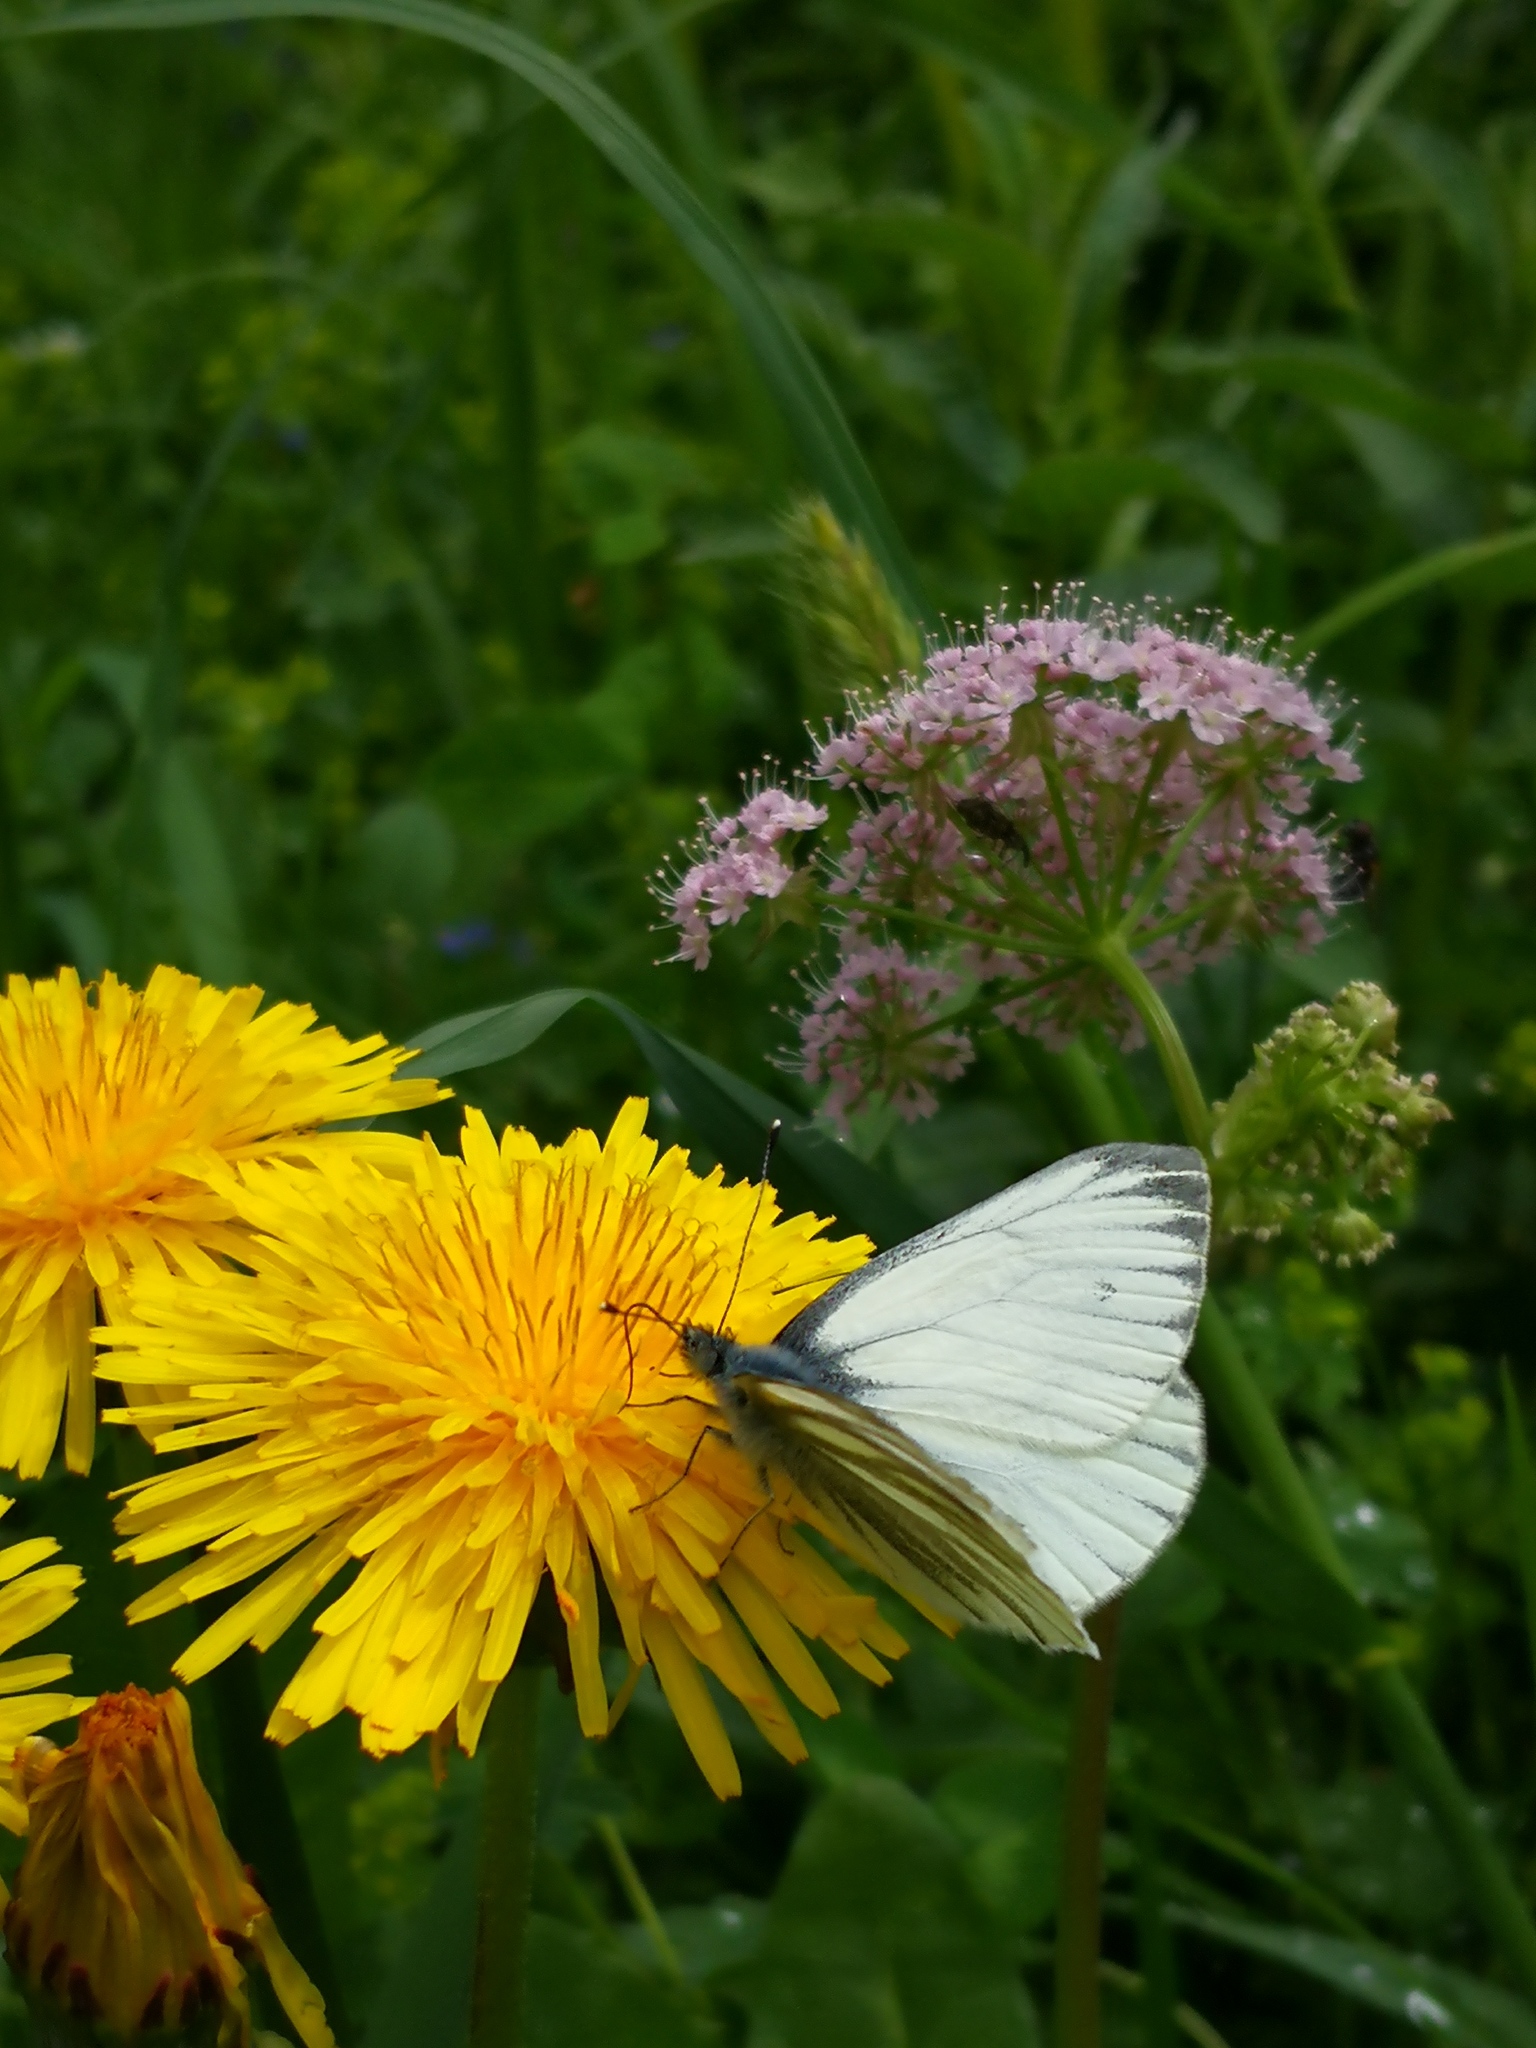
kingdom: Animalia
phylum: Arthropoda
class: Insecta
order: Lepidoptera
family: Pieridae
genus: Pieris
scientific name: Pieris napi
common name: Green-veined white
